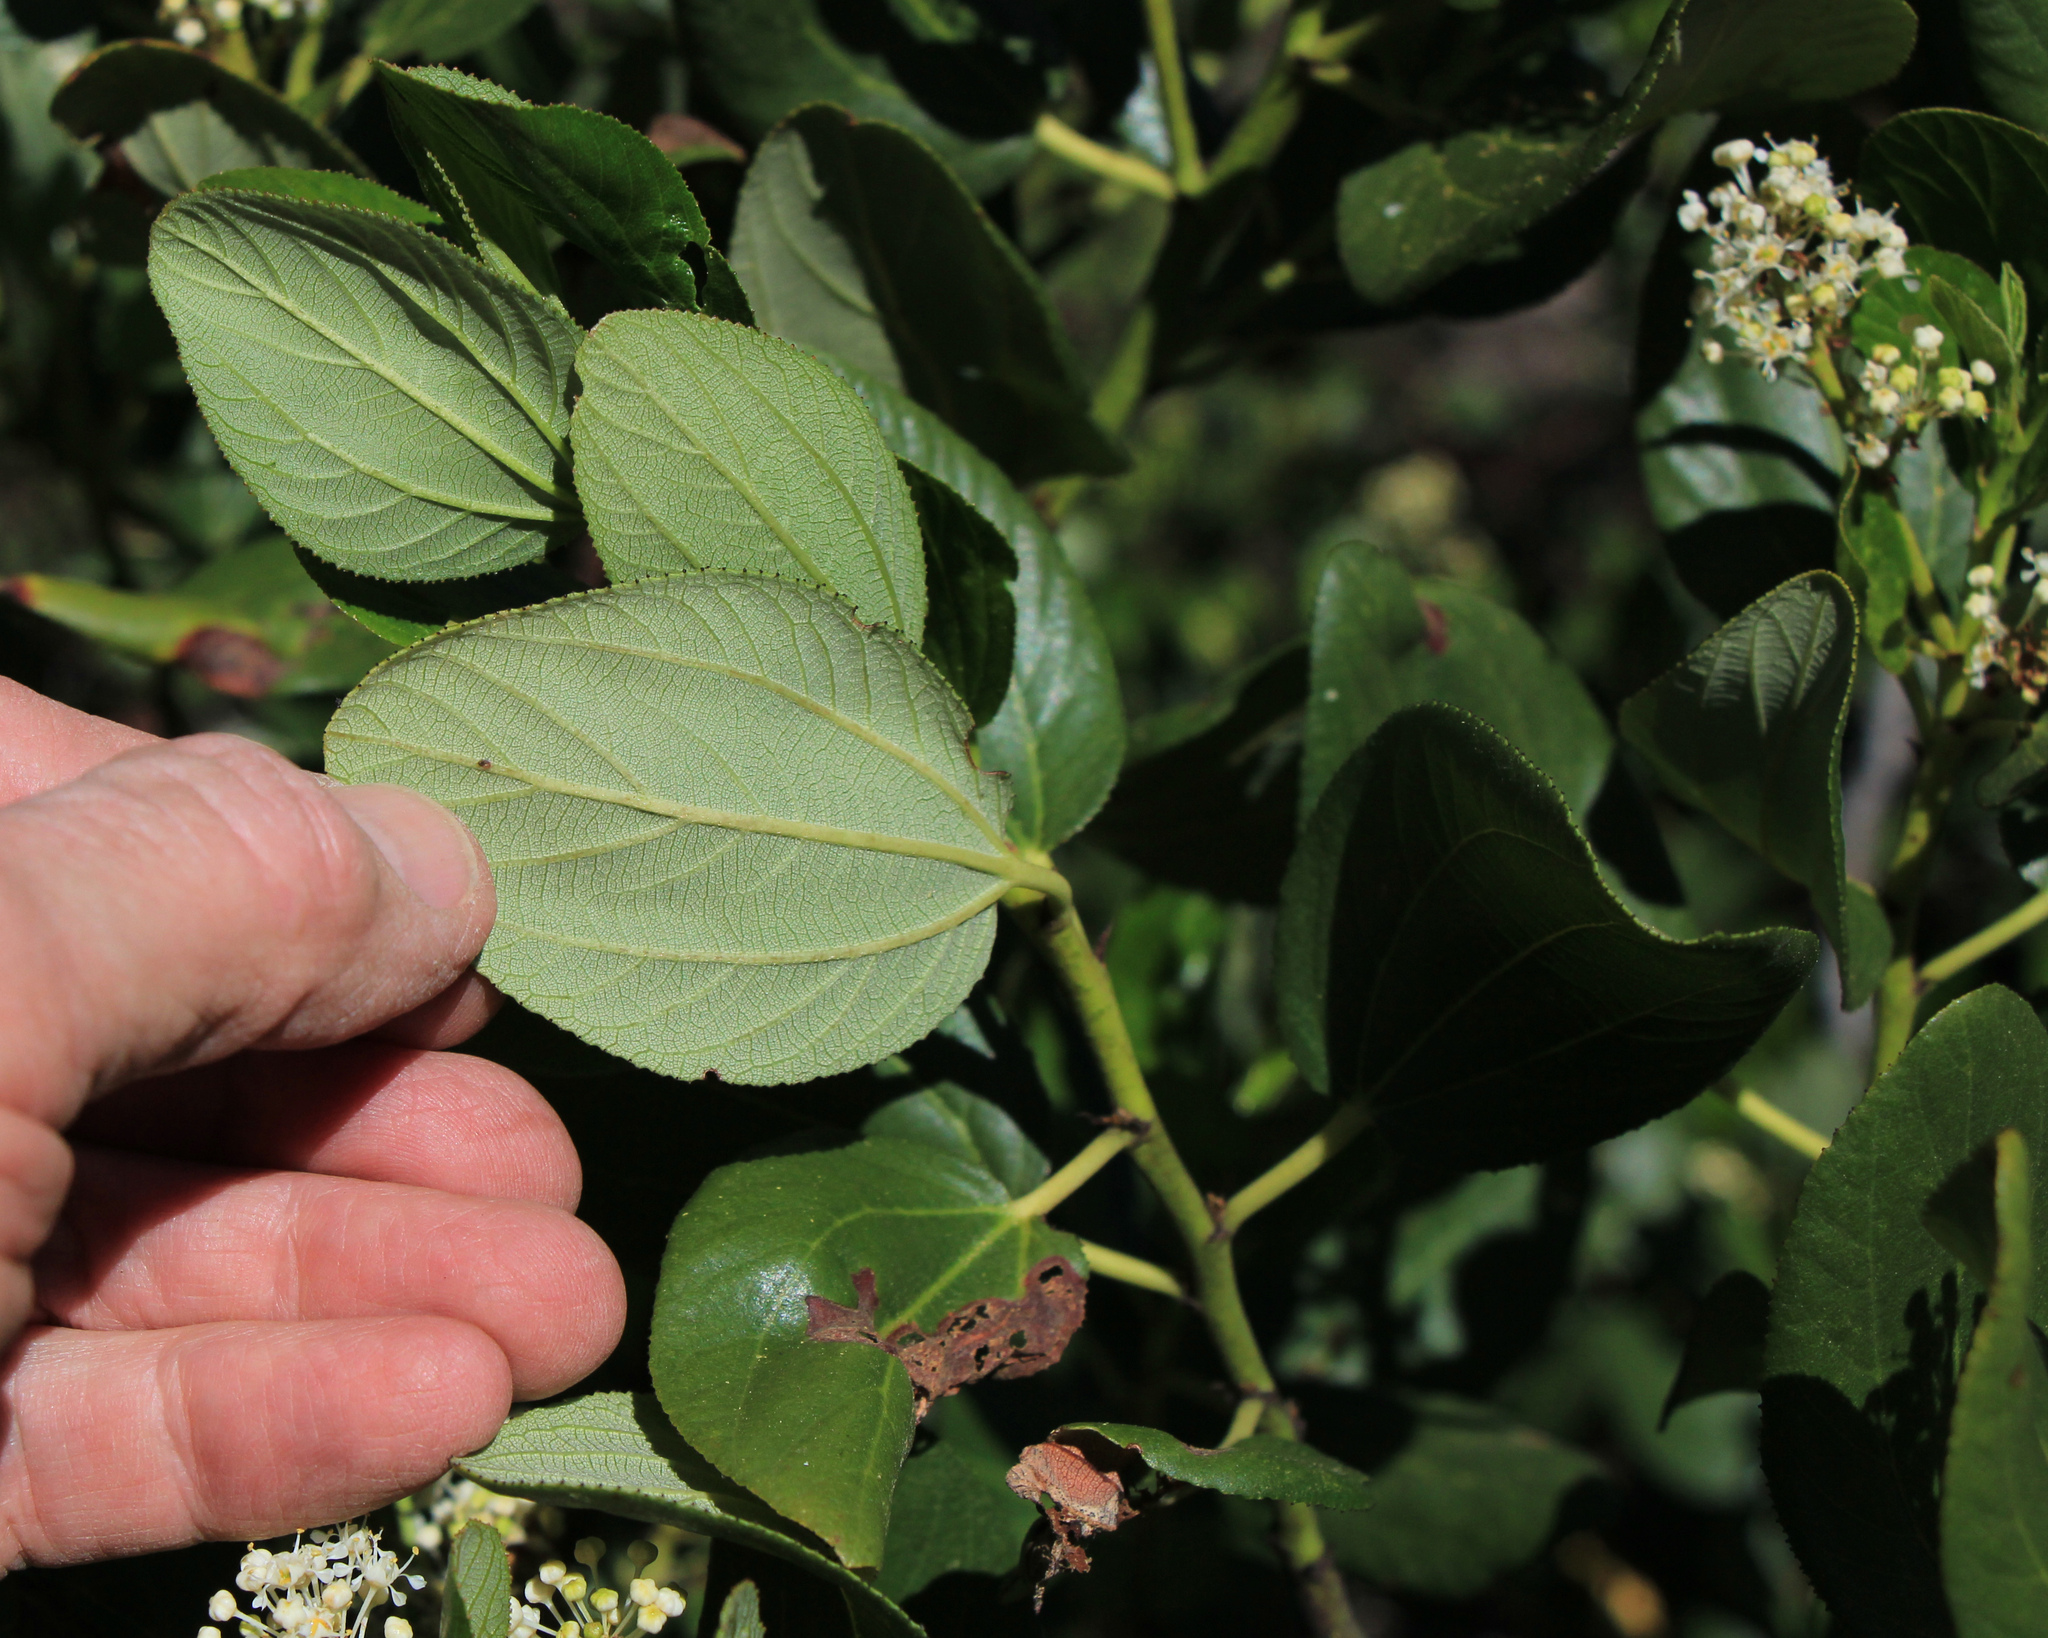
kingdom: Plantae
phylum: Tracheophyta
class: Magnoliopsida
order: Rosales
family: Rhamnaceae
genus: Ceanothus
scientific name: Ceanothus velutinus
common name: Snowbrush
